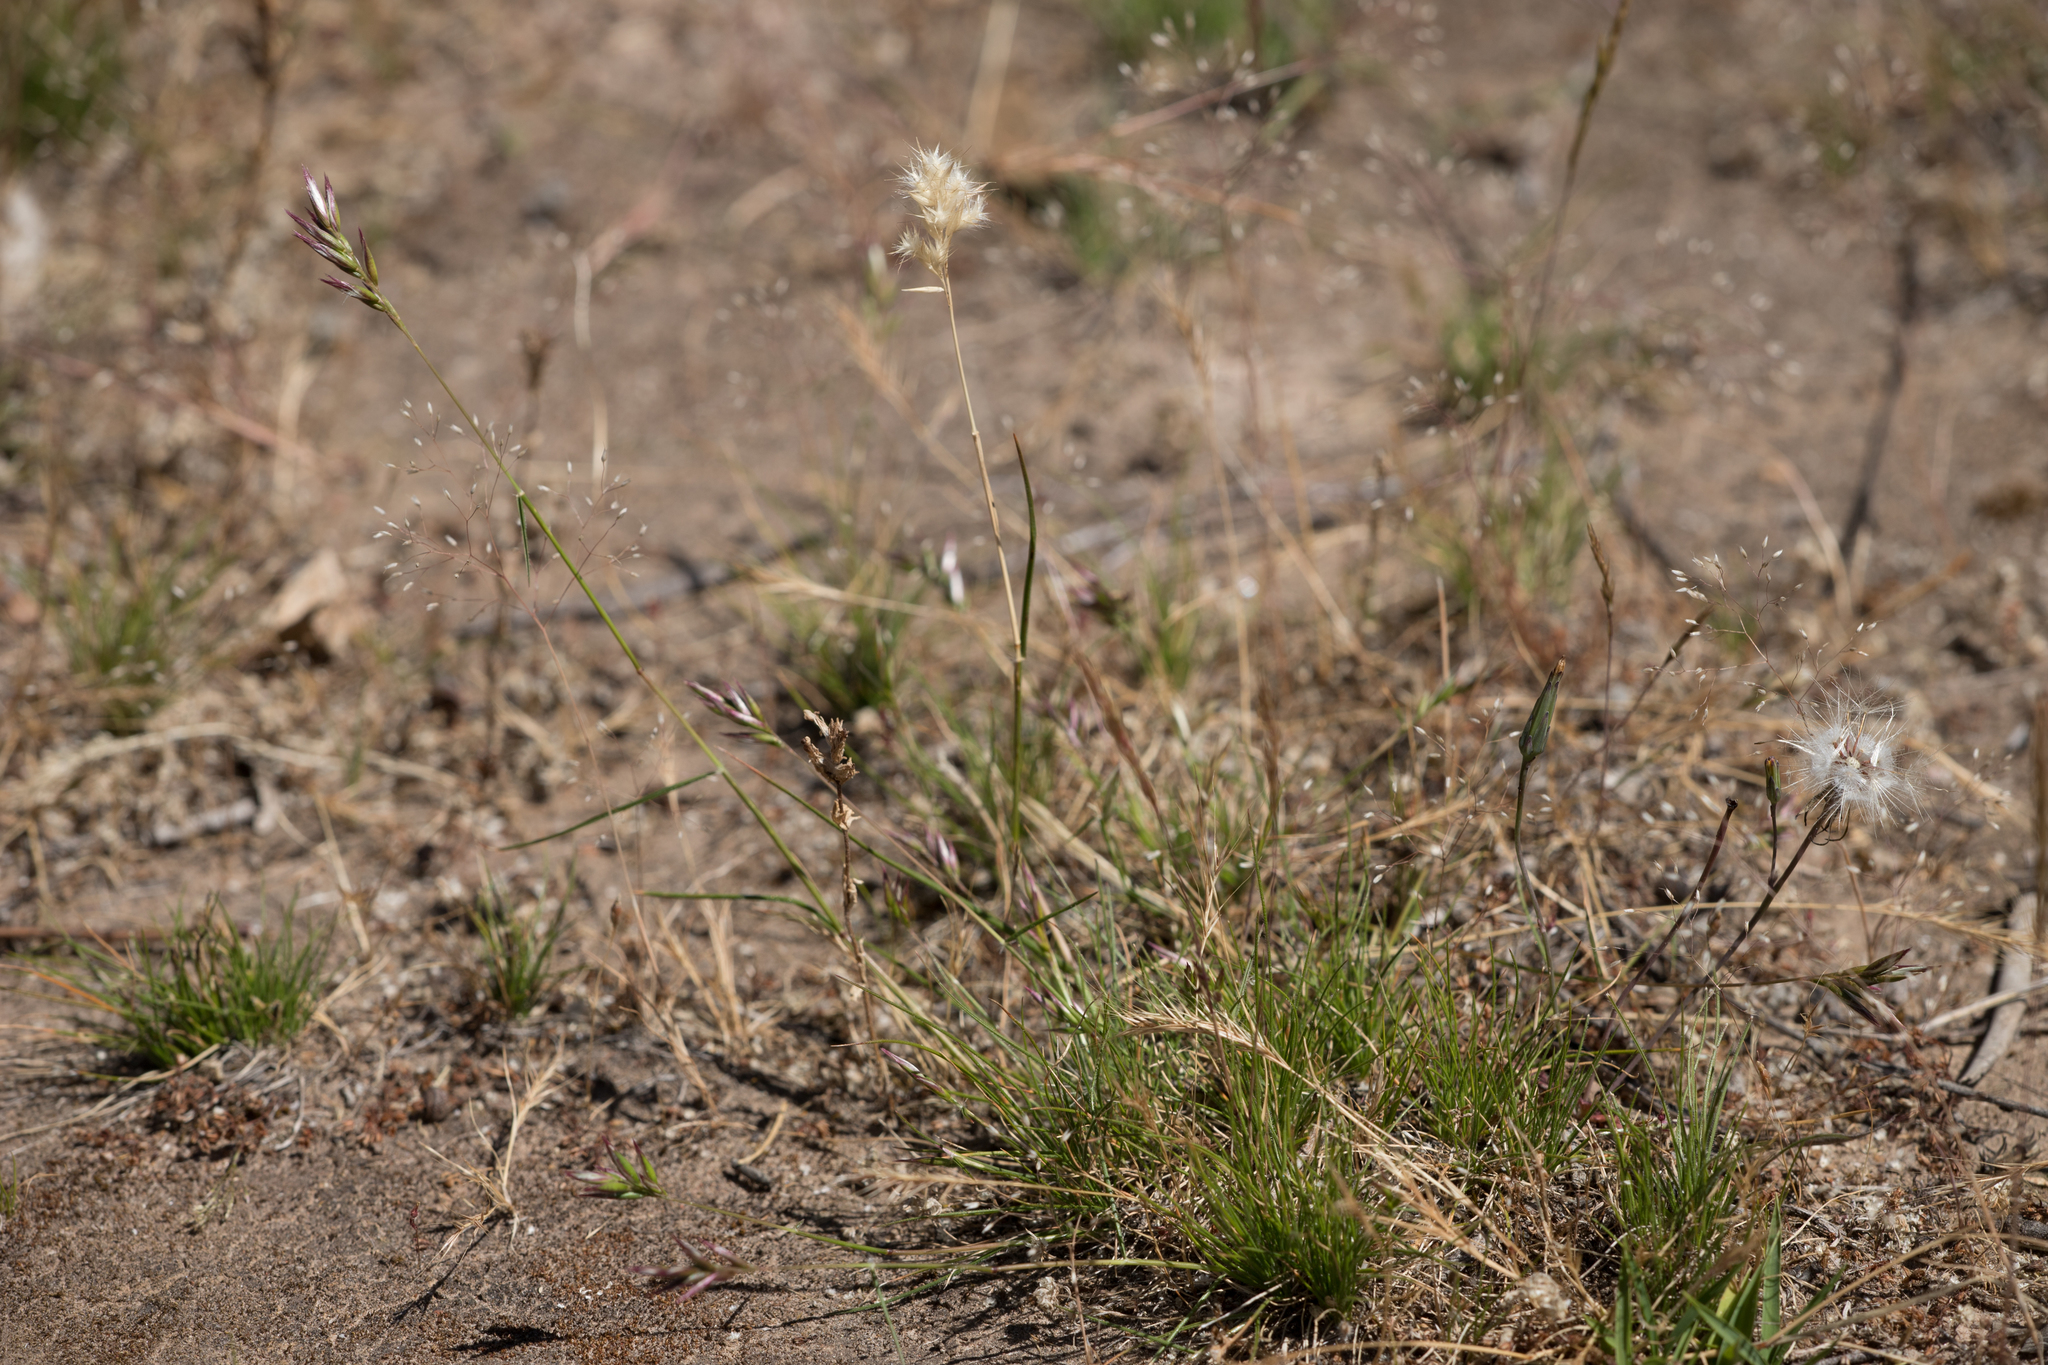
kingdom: Plantae
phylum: Tracheophyta
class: Liliopsida
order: Poales
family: Poaceae
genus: Rytidosperma
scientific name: Rytidosperma geniculatum
